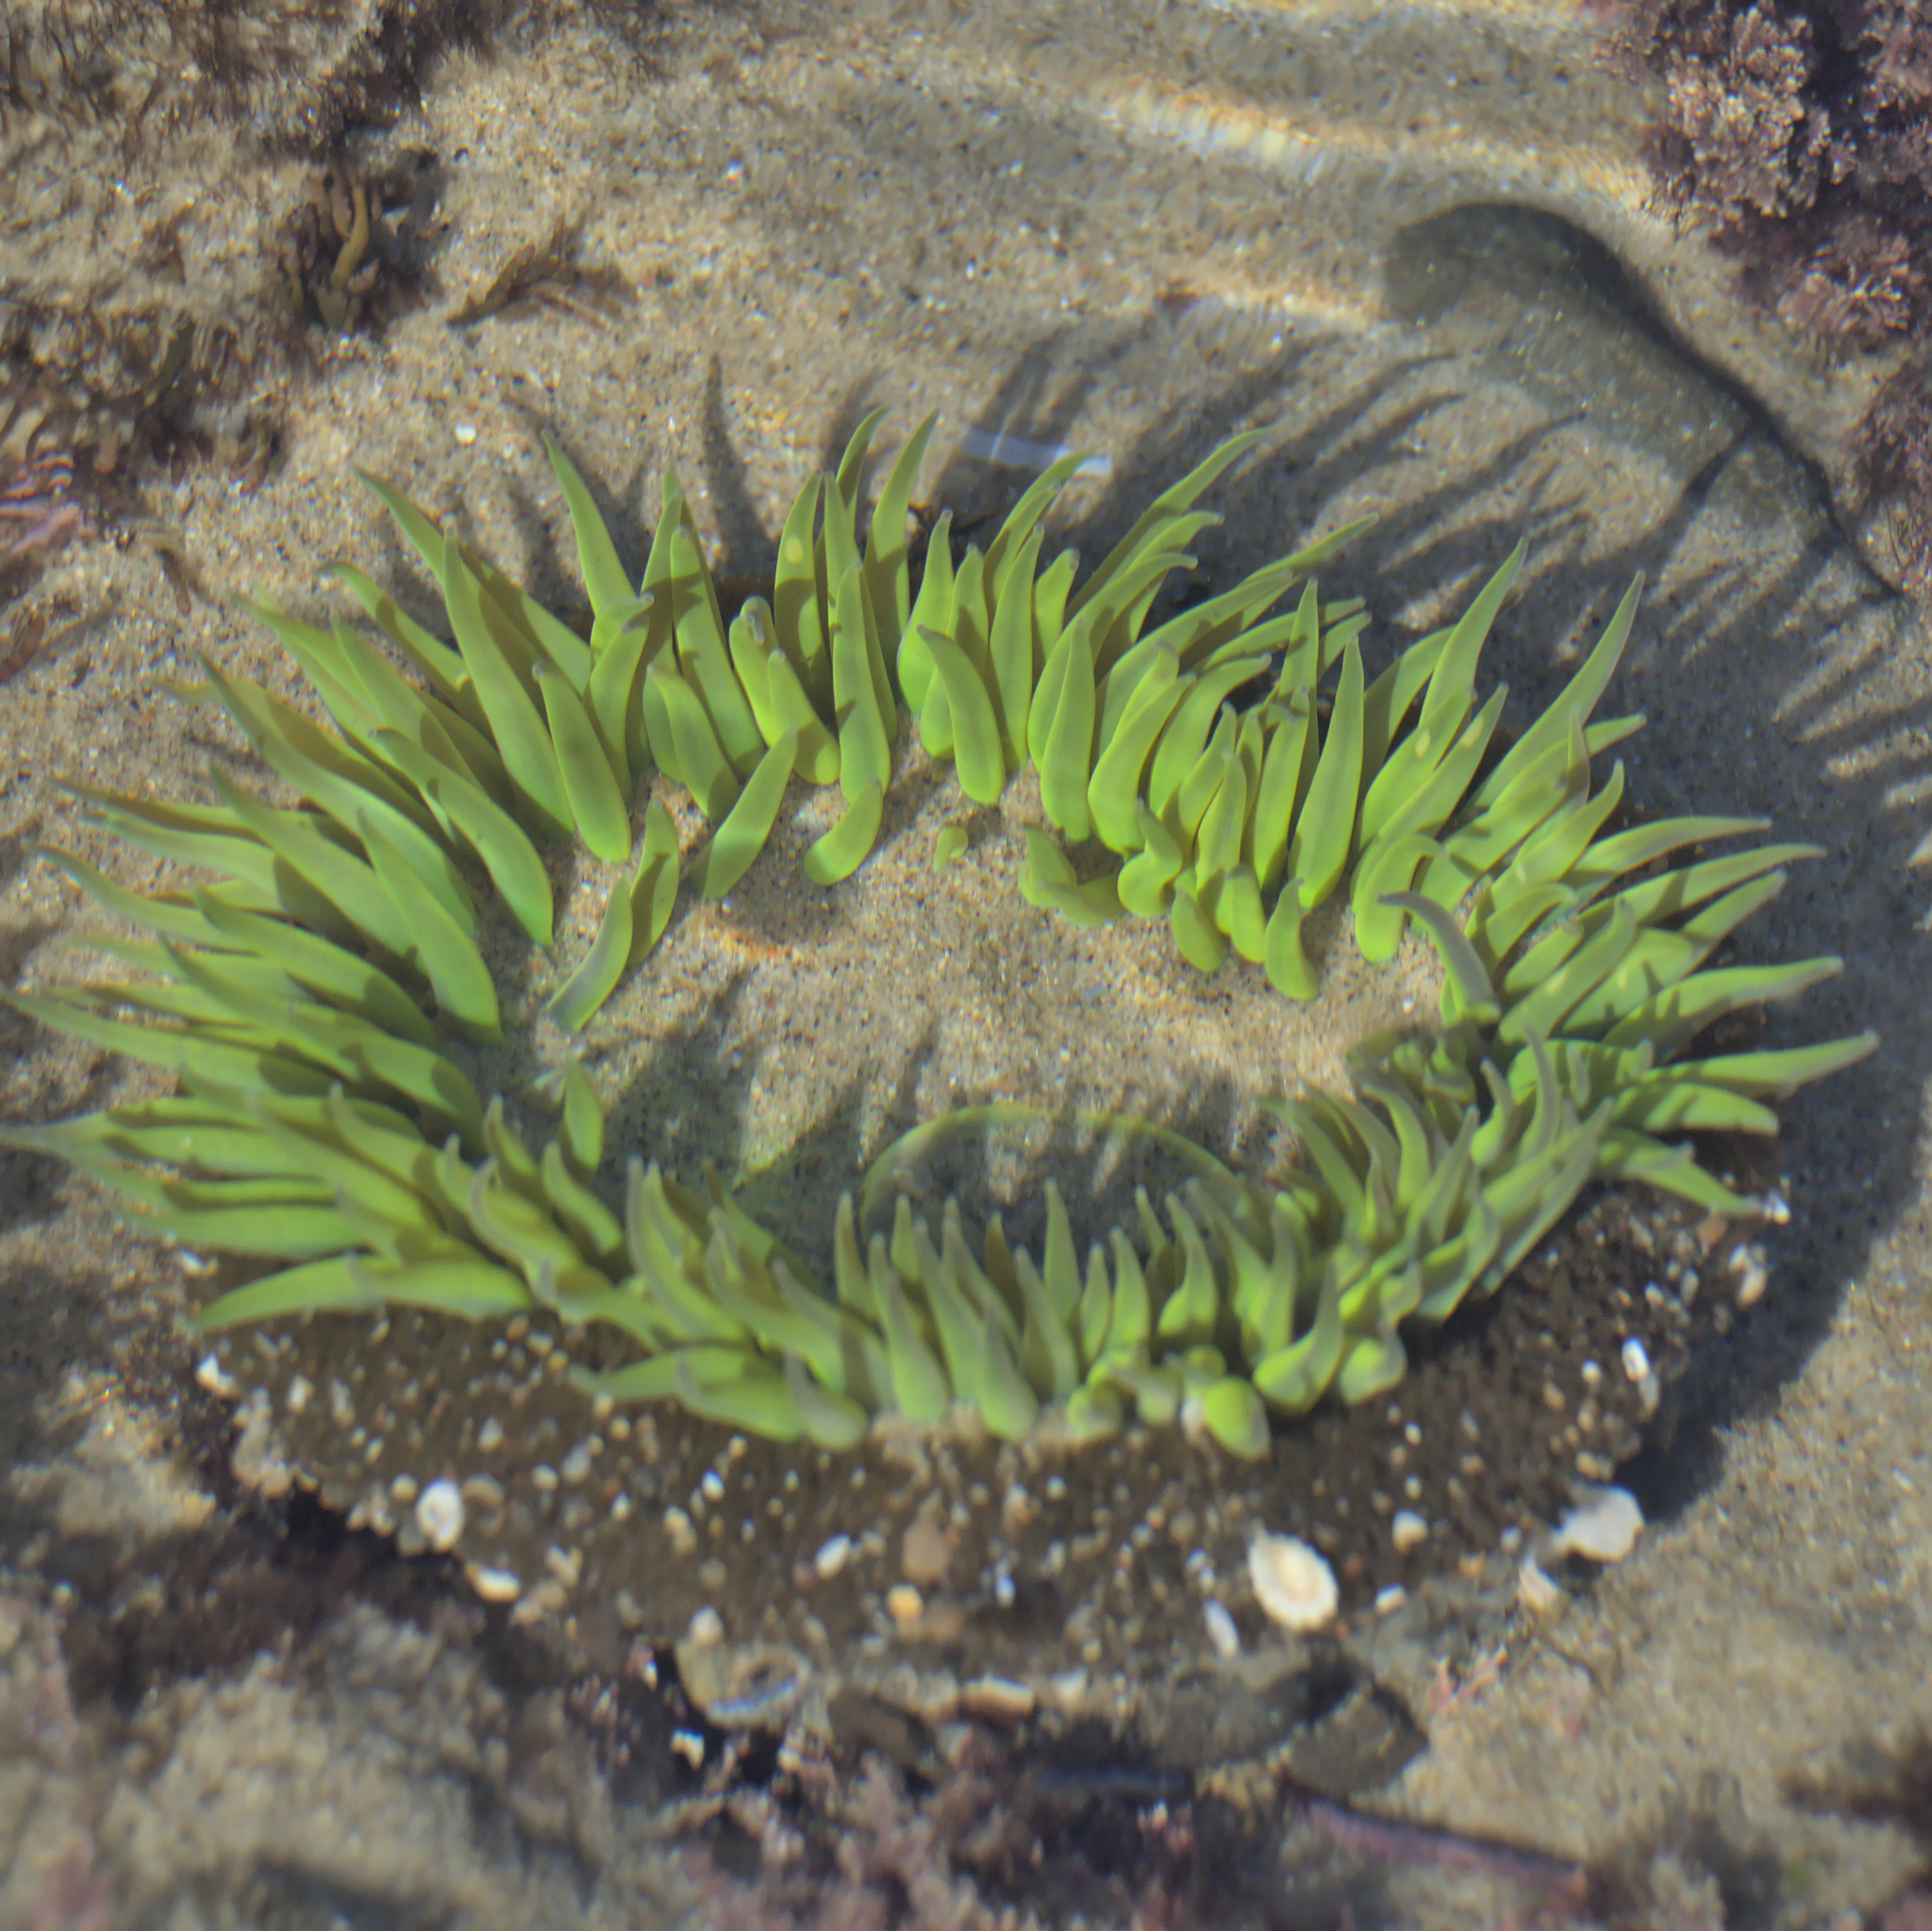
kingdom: Animalia
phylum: Cnidaria
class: Anthozoa
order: Actiniaria
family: Actiniidae
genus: Anthopleura
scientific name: Anthopleura sola
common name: Sun anemone
